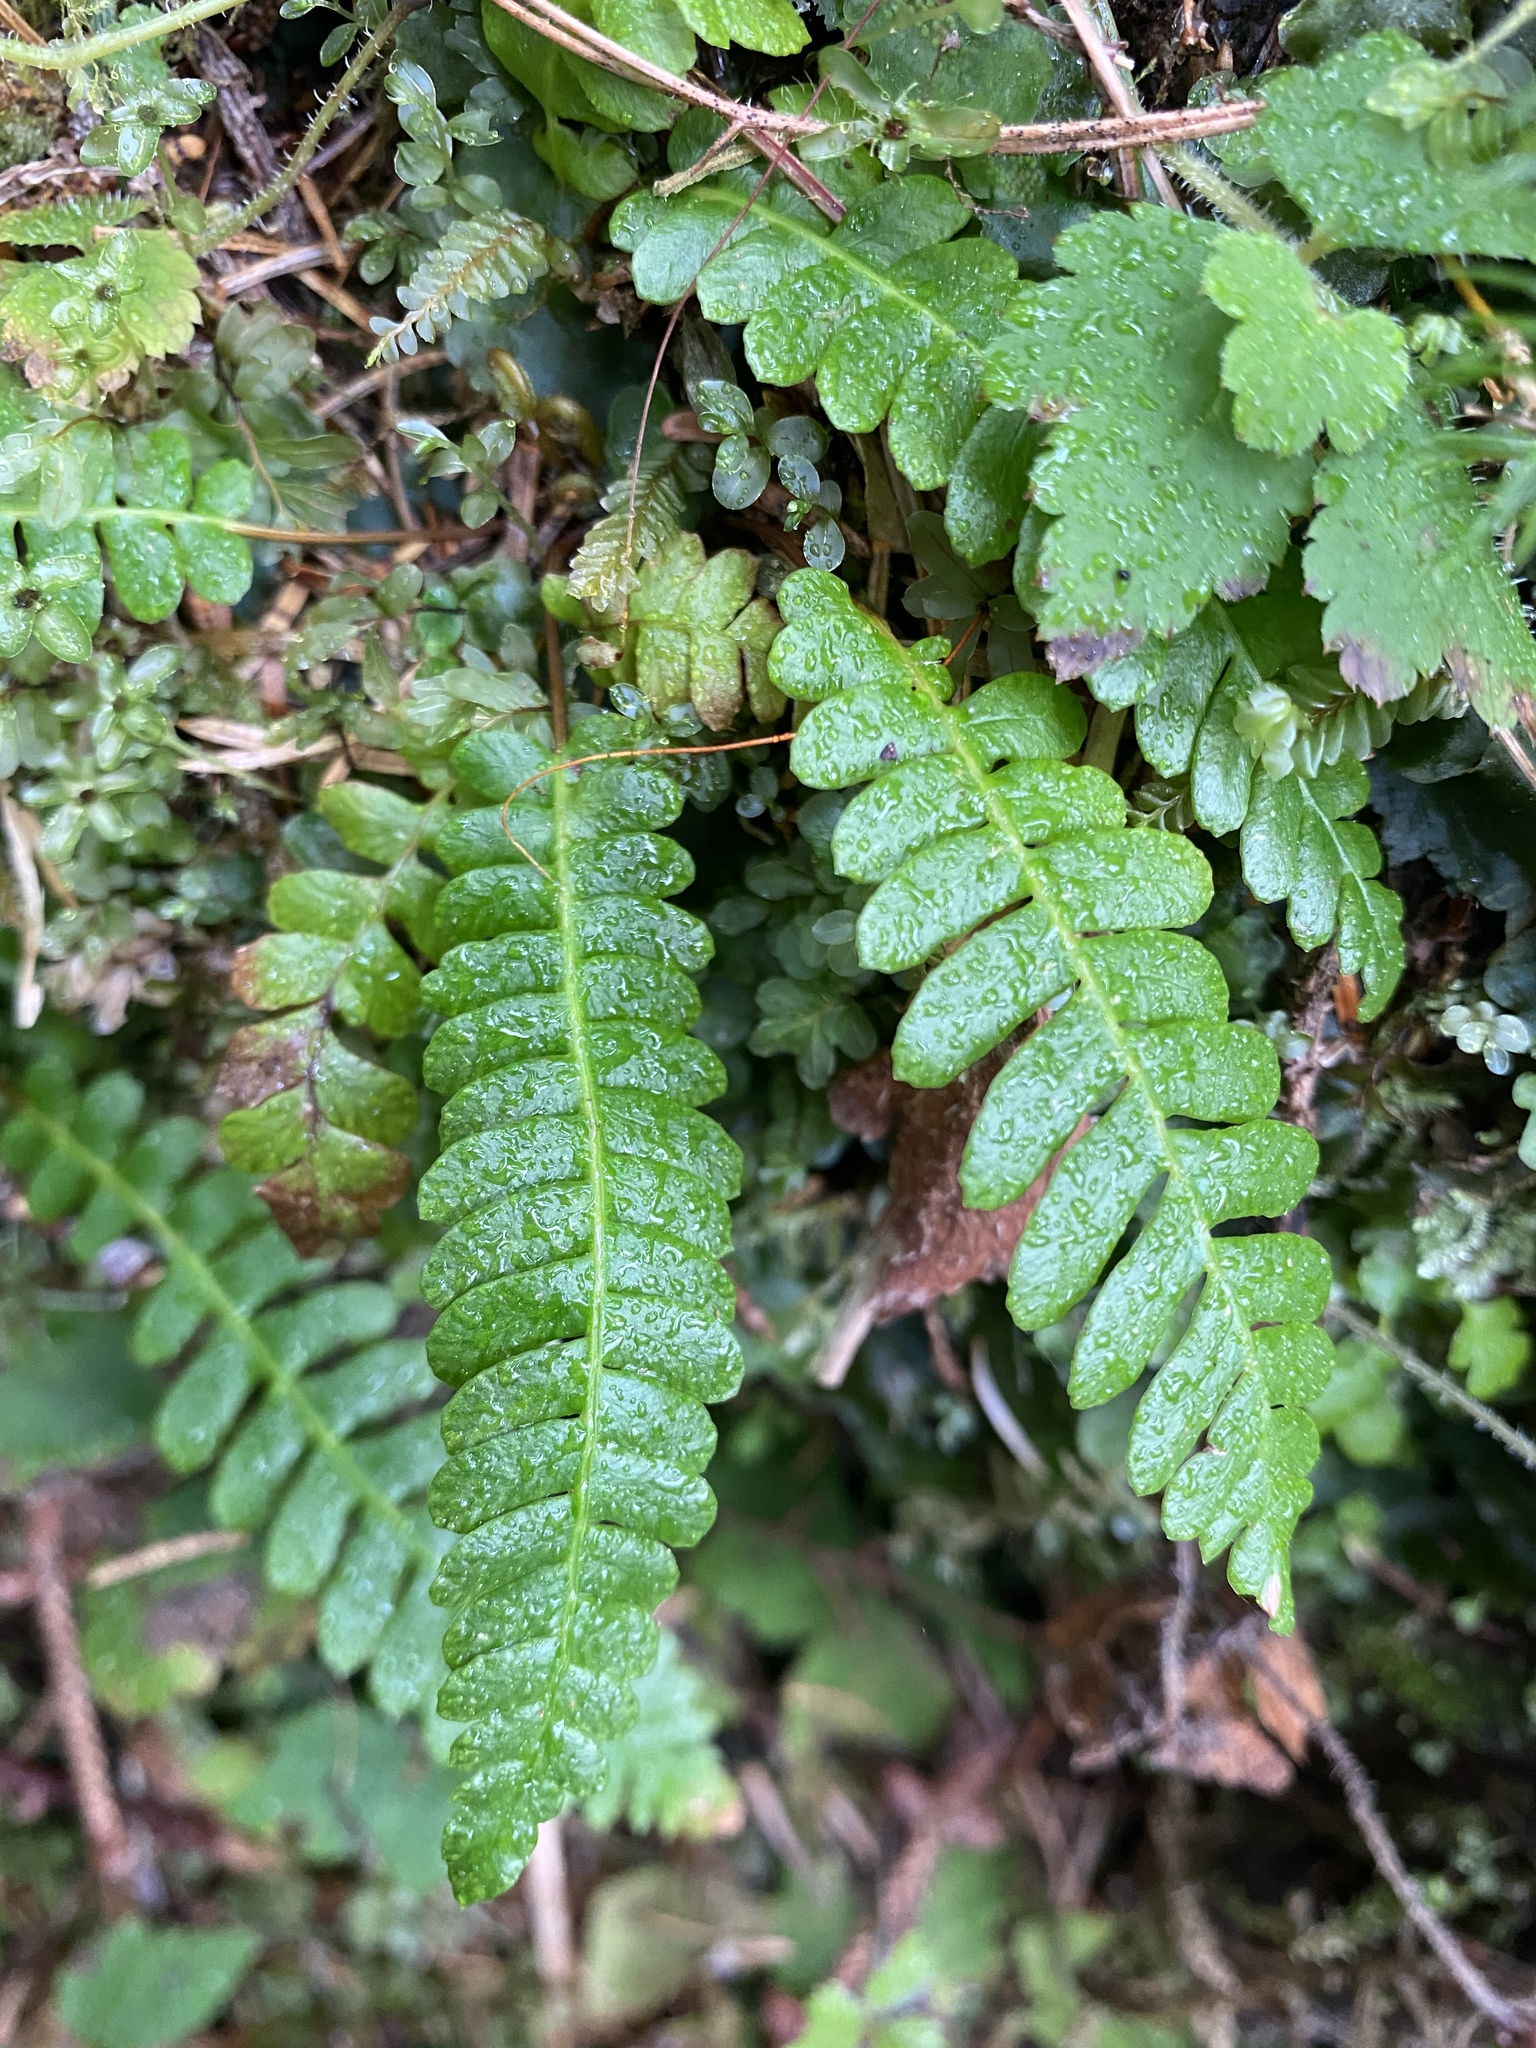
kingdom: Plantae
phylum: Tracheophyta
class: Polypodiopsida
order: Polypodiales
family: Blechnaceae
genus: Struthiopteris
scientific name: Struthiopteris spicant
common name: Deer fern
